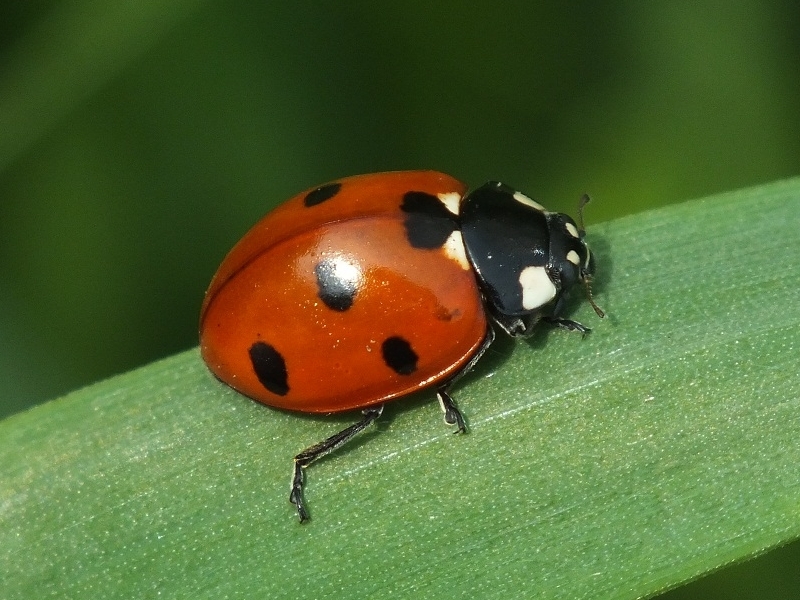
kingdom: Animalia
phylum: Arthropoda
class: Insecta
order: Coleoptera
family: Coccinellidae
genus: Coccinella
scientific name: Coccinella septempunctata
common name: Sevenspotted lady beetle
